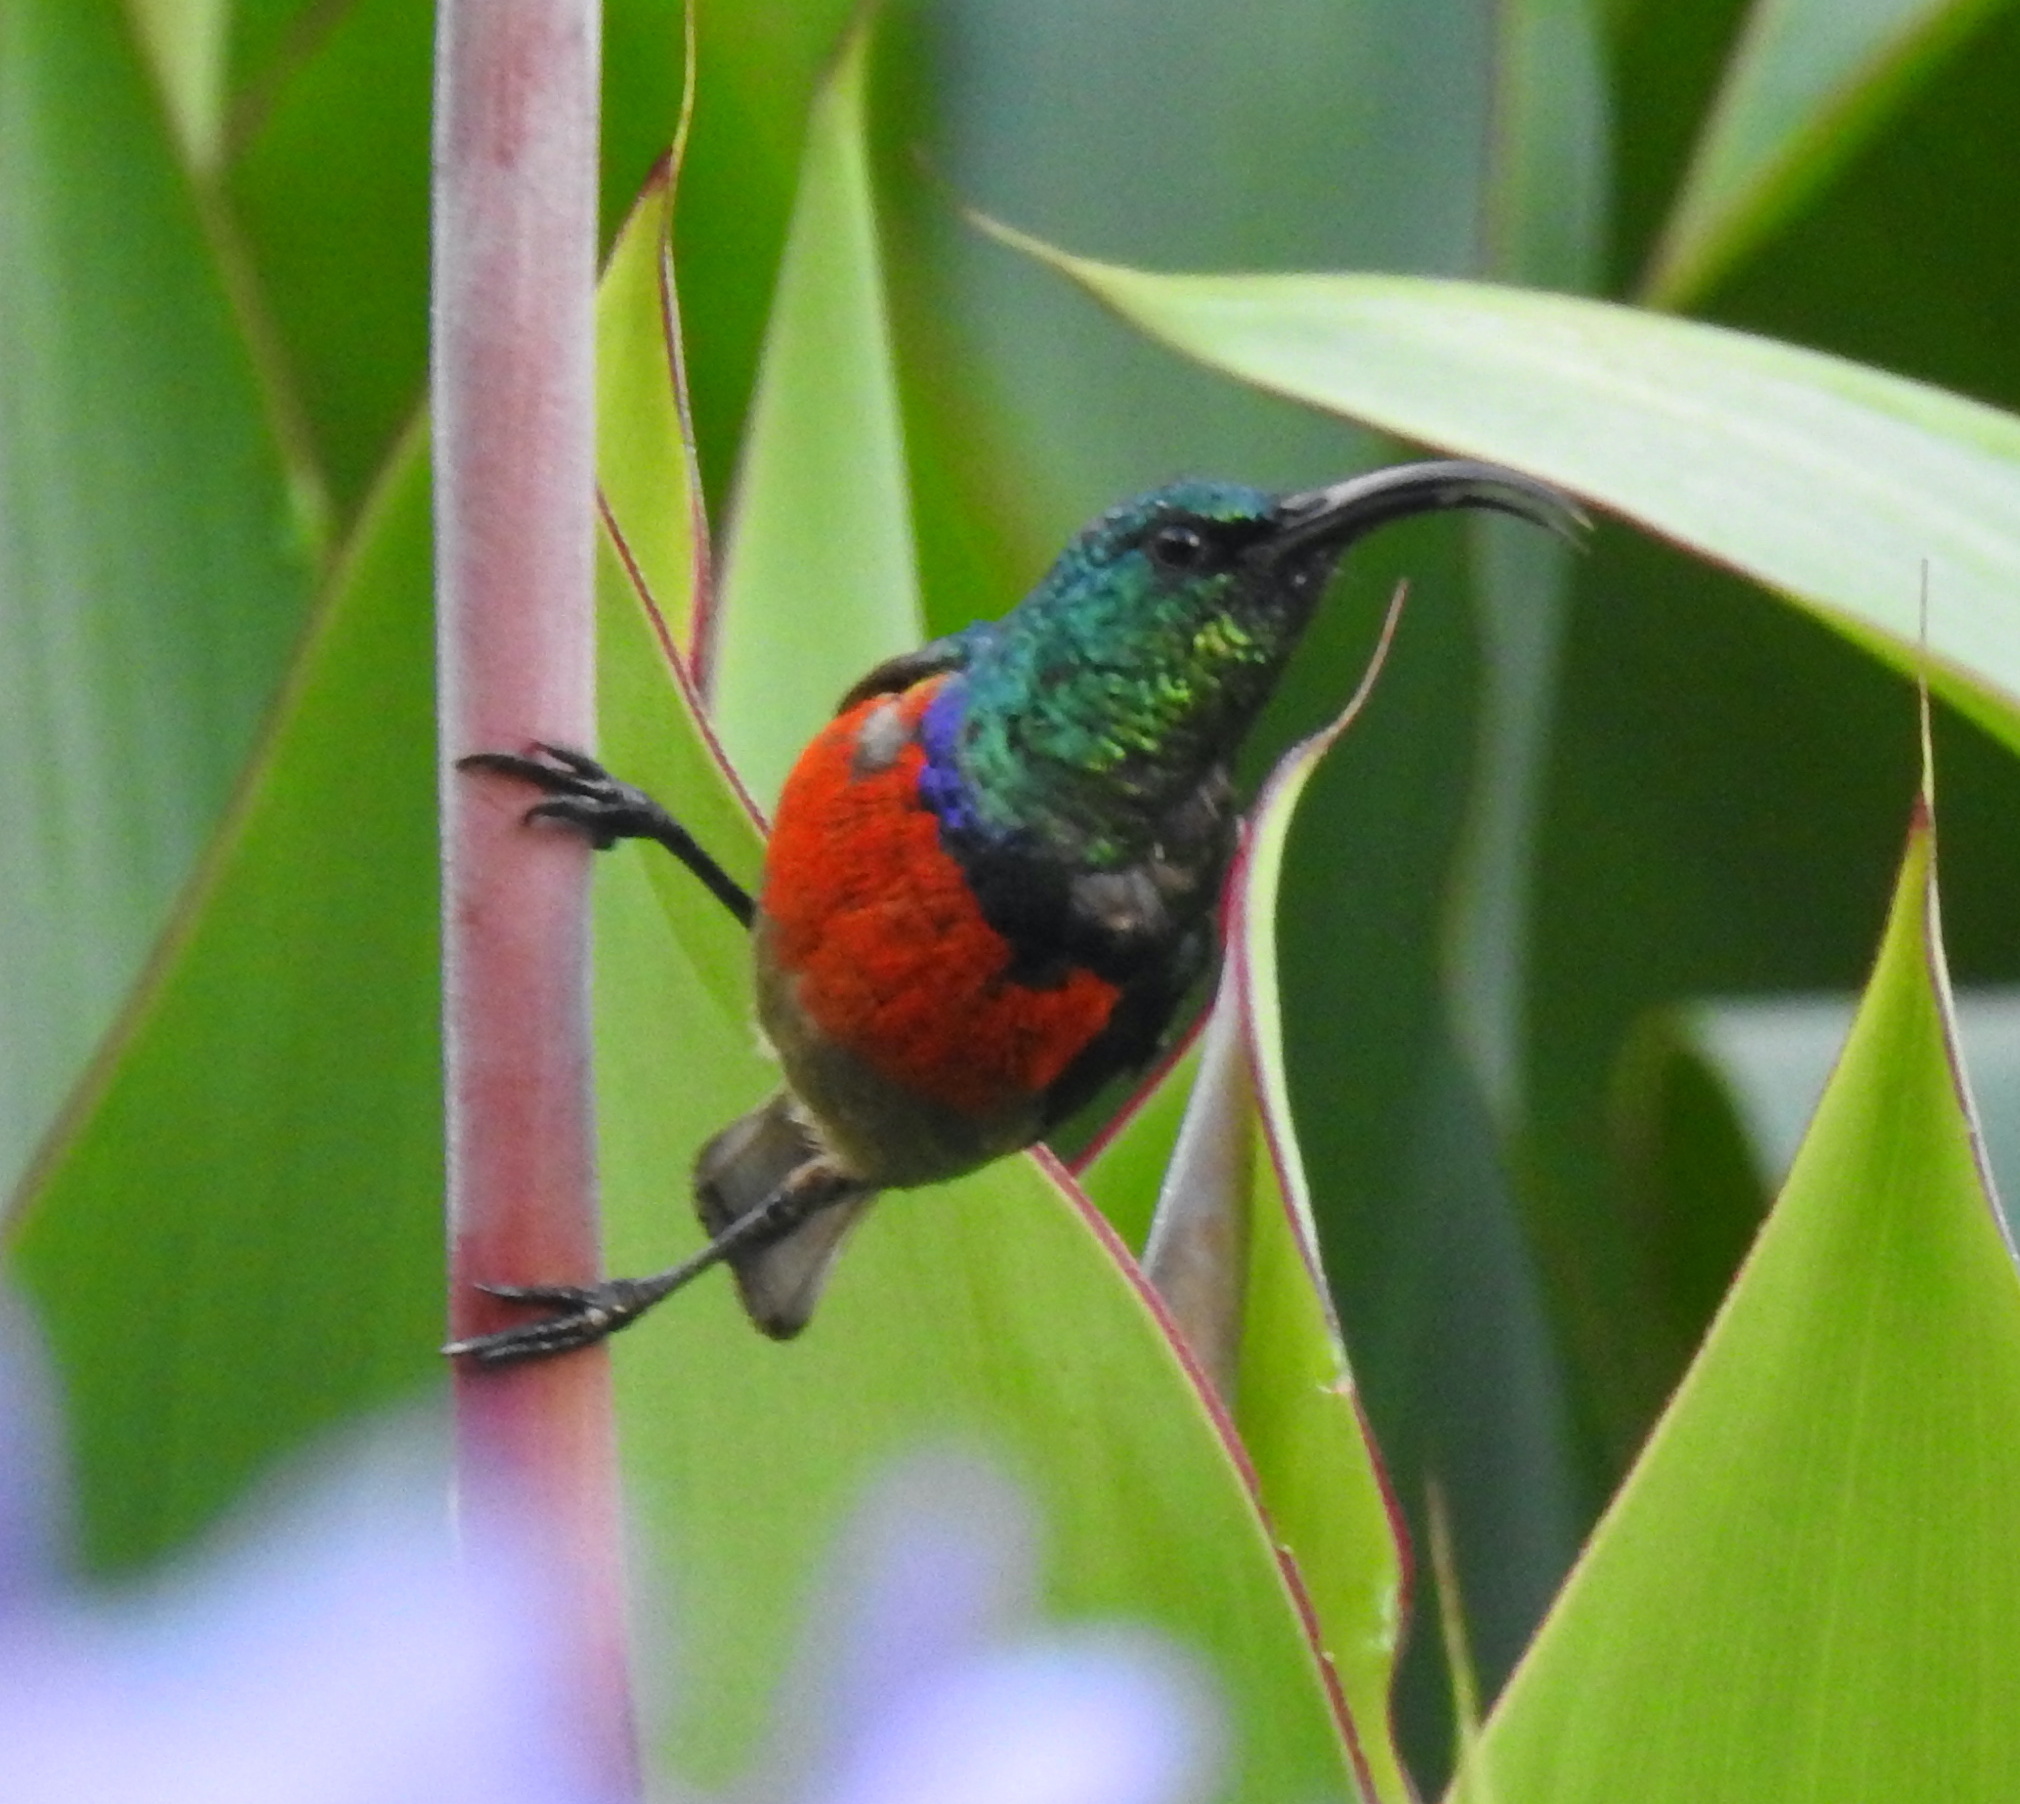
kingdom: Animalia
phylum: Chordata
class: Aves
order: Passeriformes
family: Nectariniidae
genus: Cinnyris
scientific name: Cinnyris afer
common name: Greater double-collared sunbird
